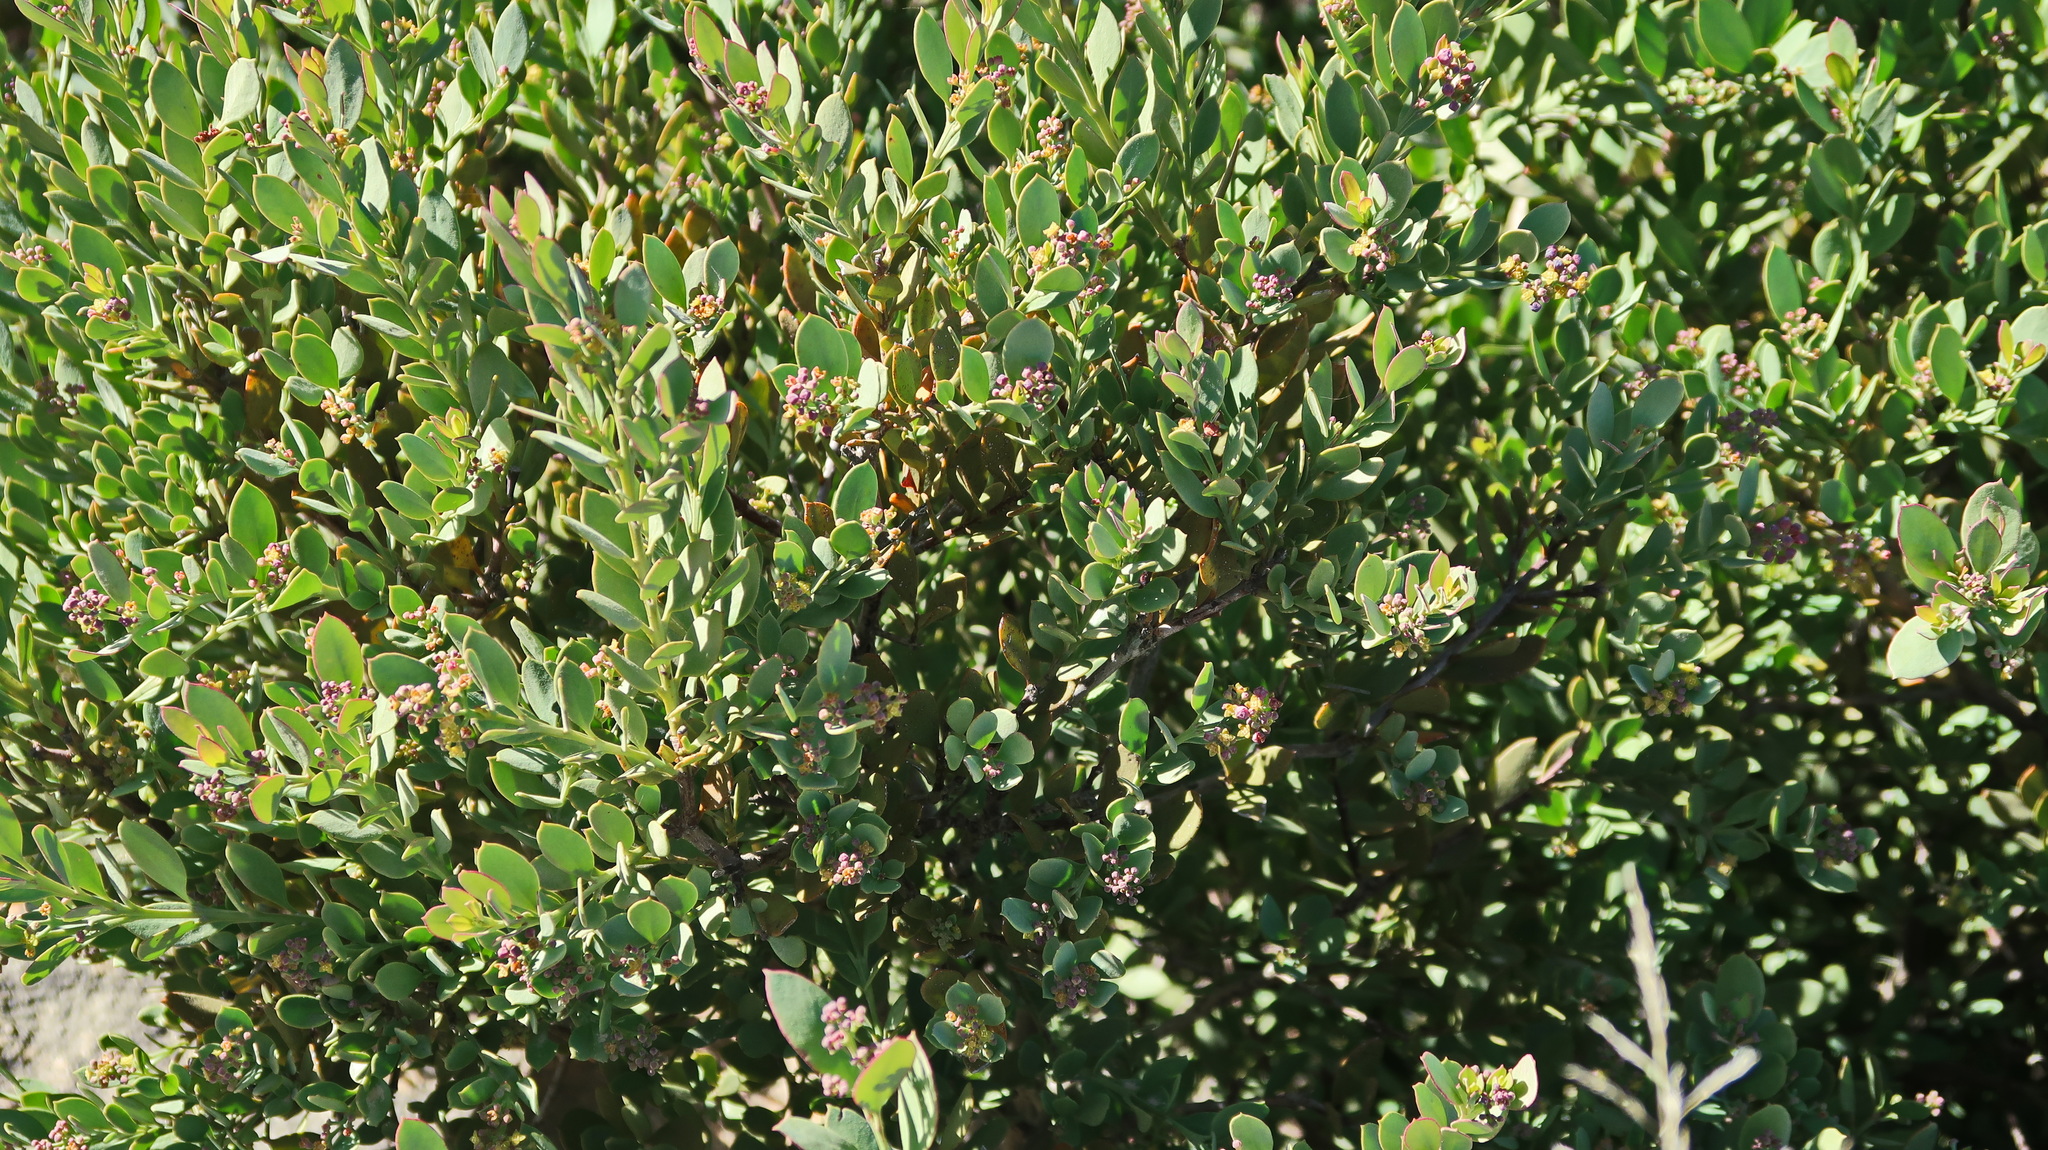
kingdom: Plantae
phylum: Tracheophyta
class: Magnoliopsida
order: Santalales
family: Santalaceae
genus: Osyris
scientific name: Osyris compressa
